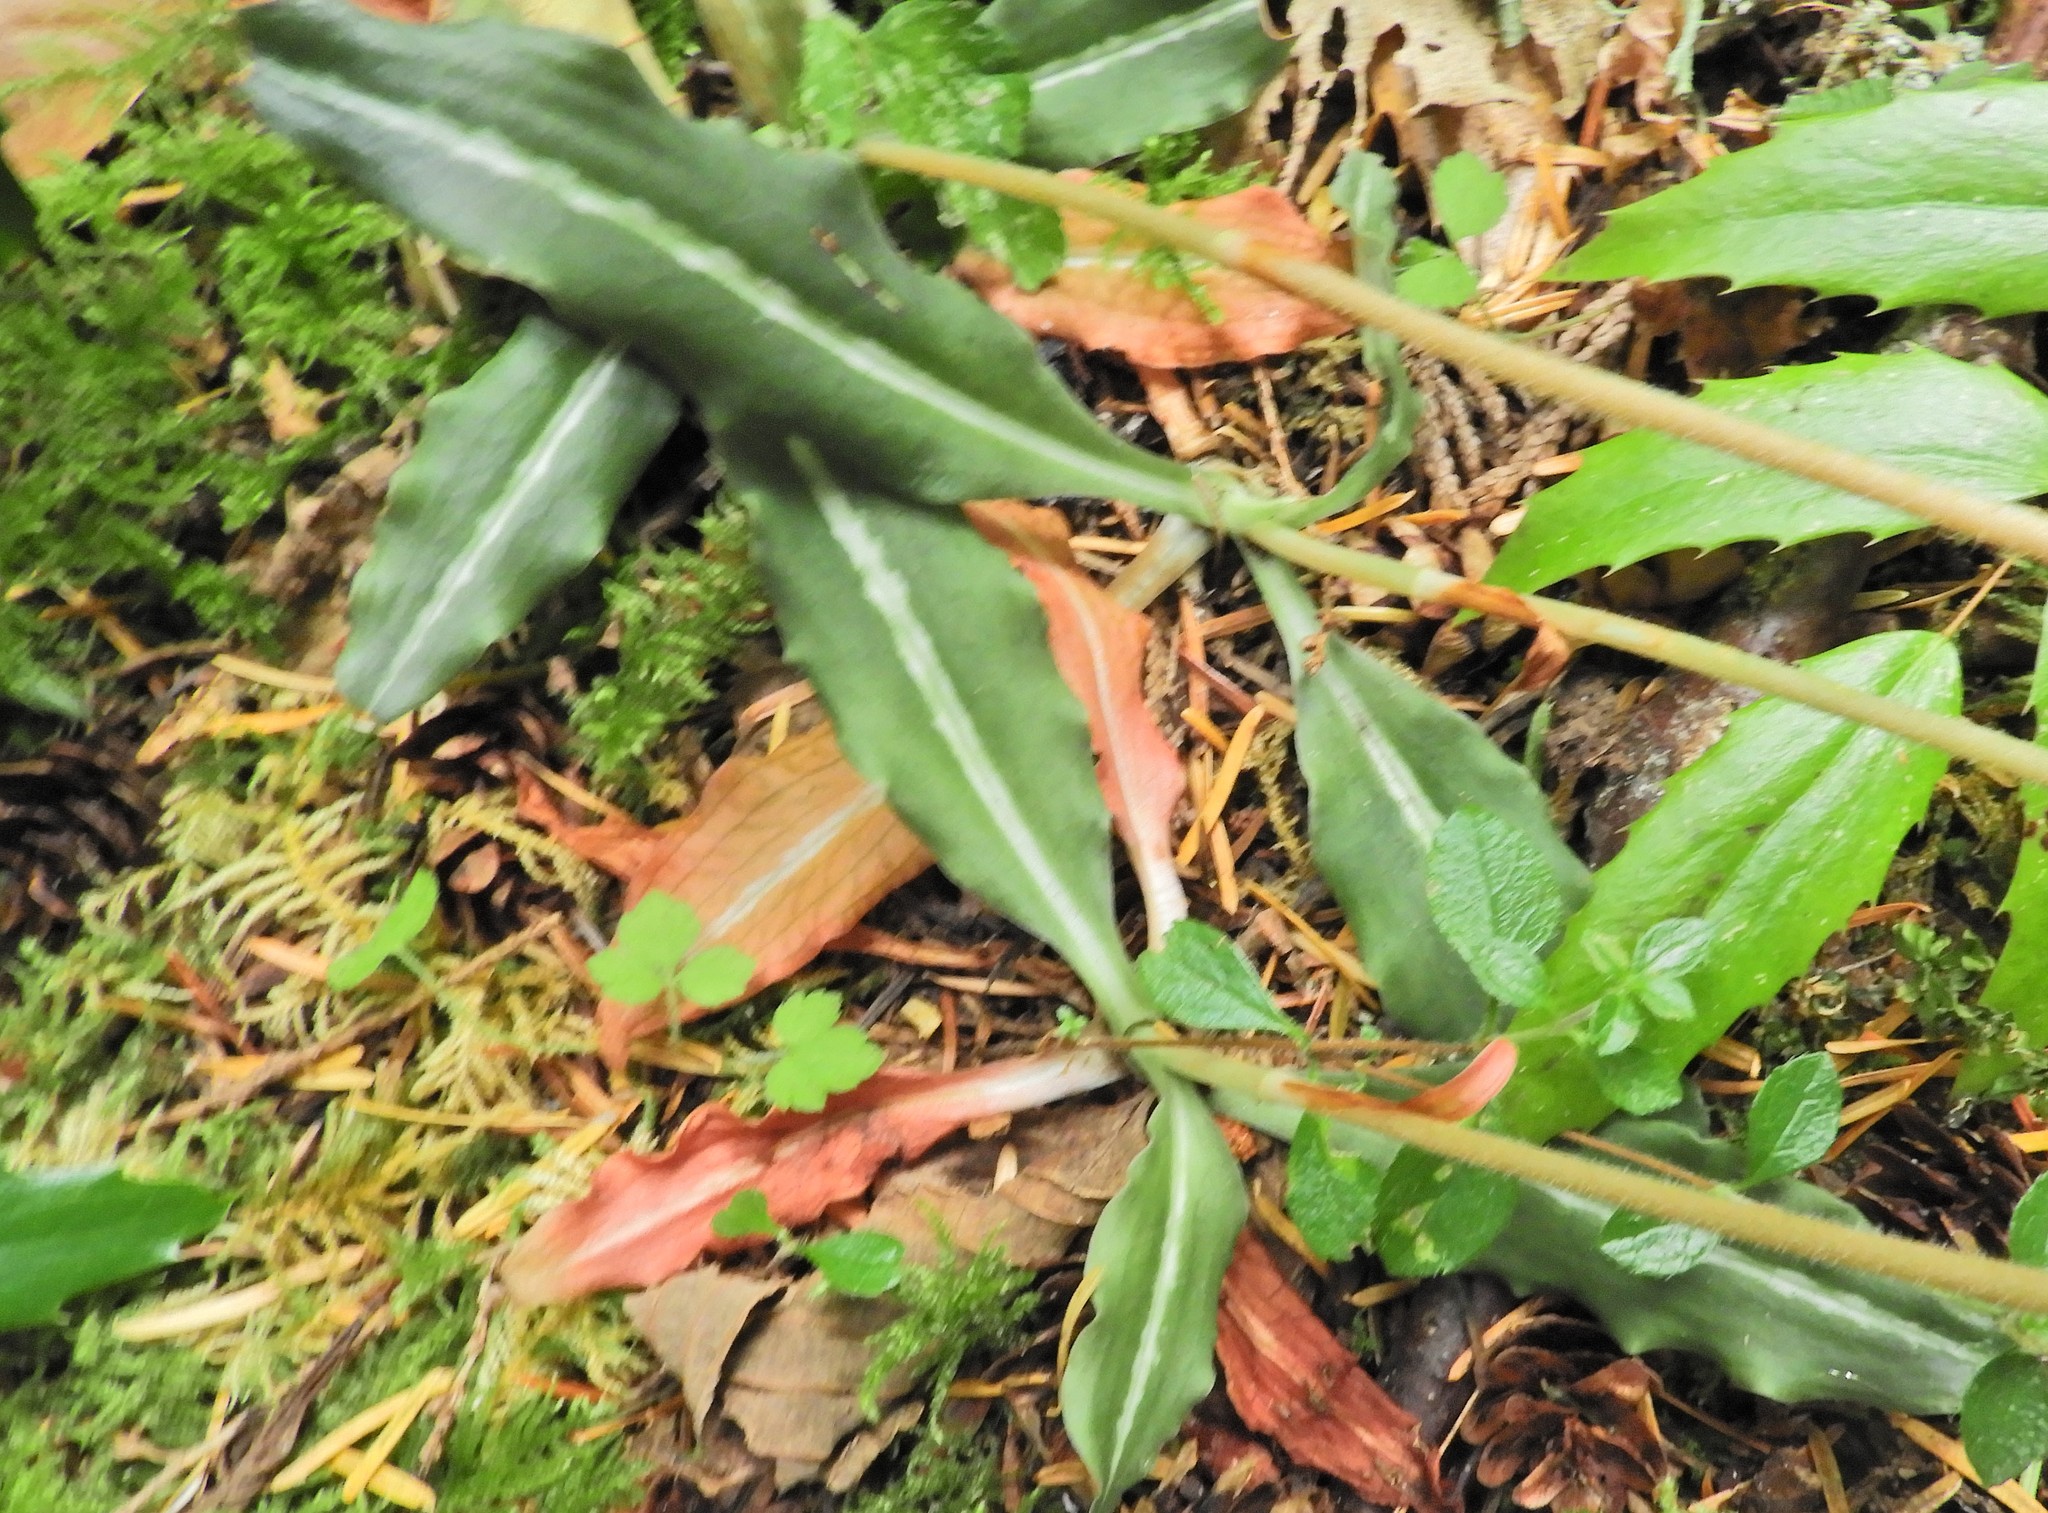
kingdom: Plantae
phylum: Tracheophyta
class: Liliopsida
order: Asparagales
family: Orchidaceae
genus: Goodyera
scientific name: Goodyera oblongifolia
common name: Giant rattlesnake-plantain
